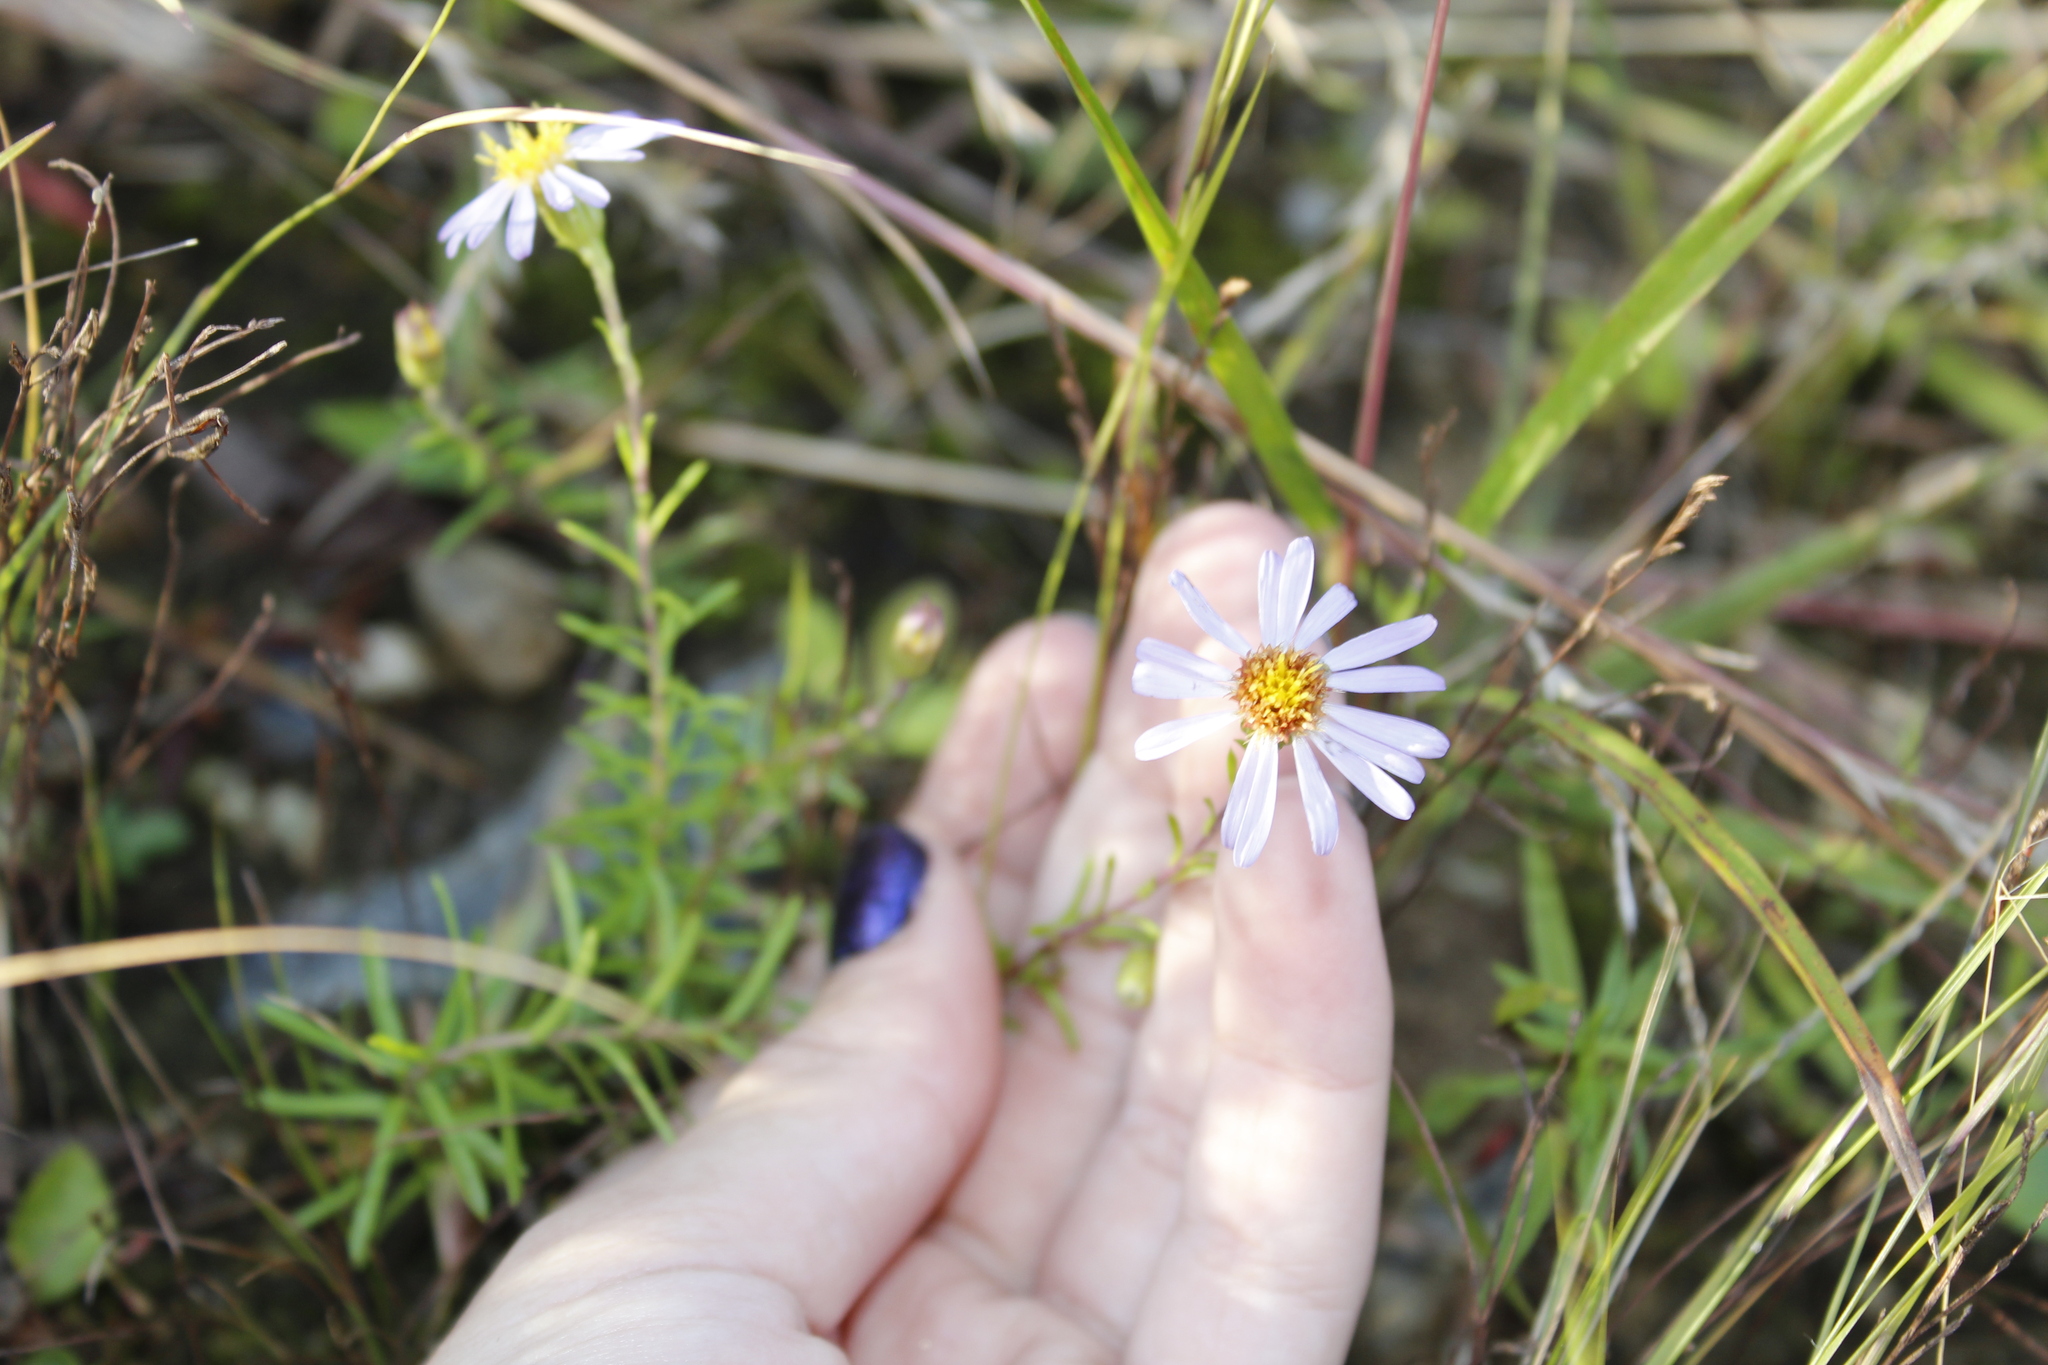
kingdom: Plantae
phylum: Tracheophyta
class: Magnoliopsida
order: Asterales
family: Asteraceae
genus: Ionactis
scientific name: Ionactis linariifolia
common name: Flax-leaf aster
